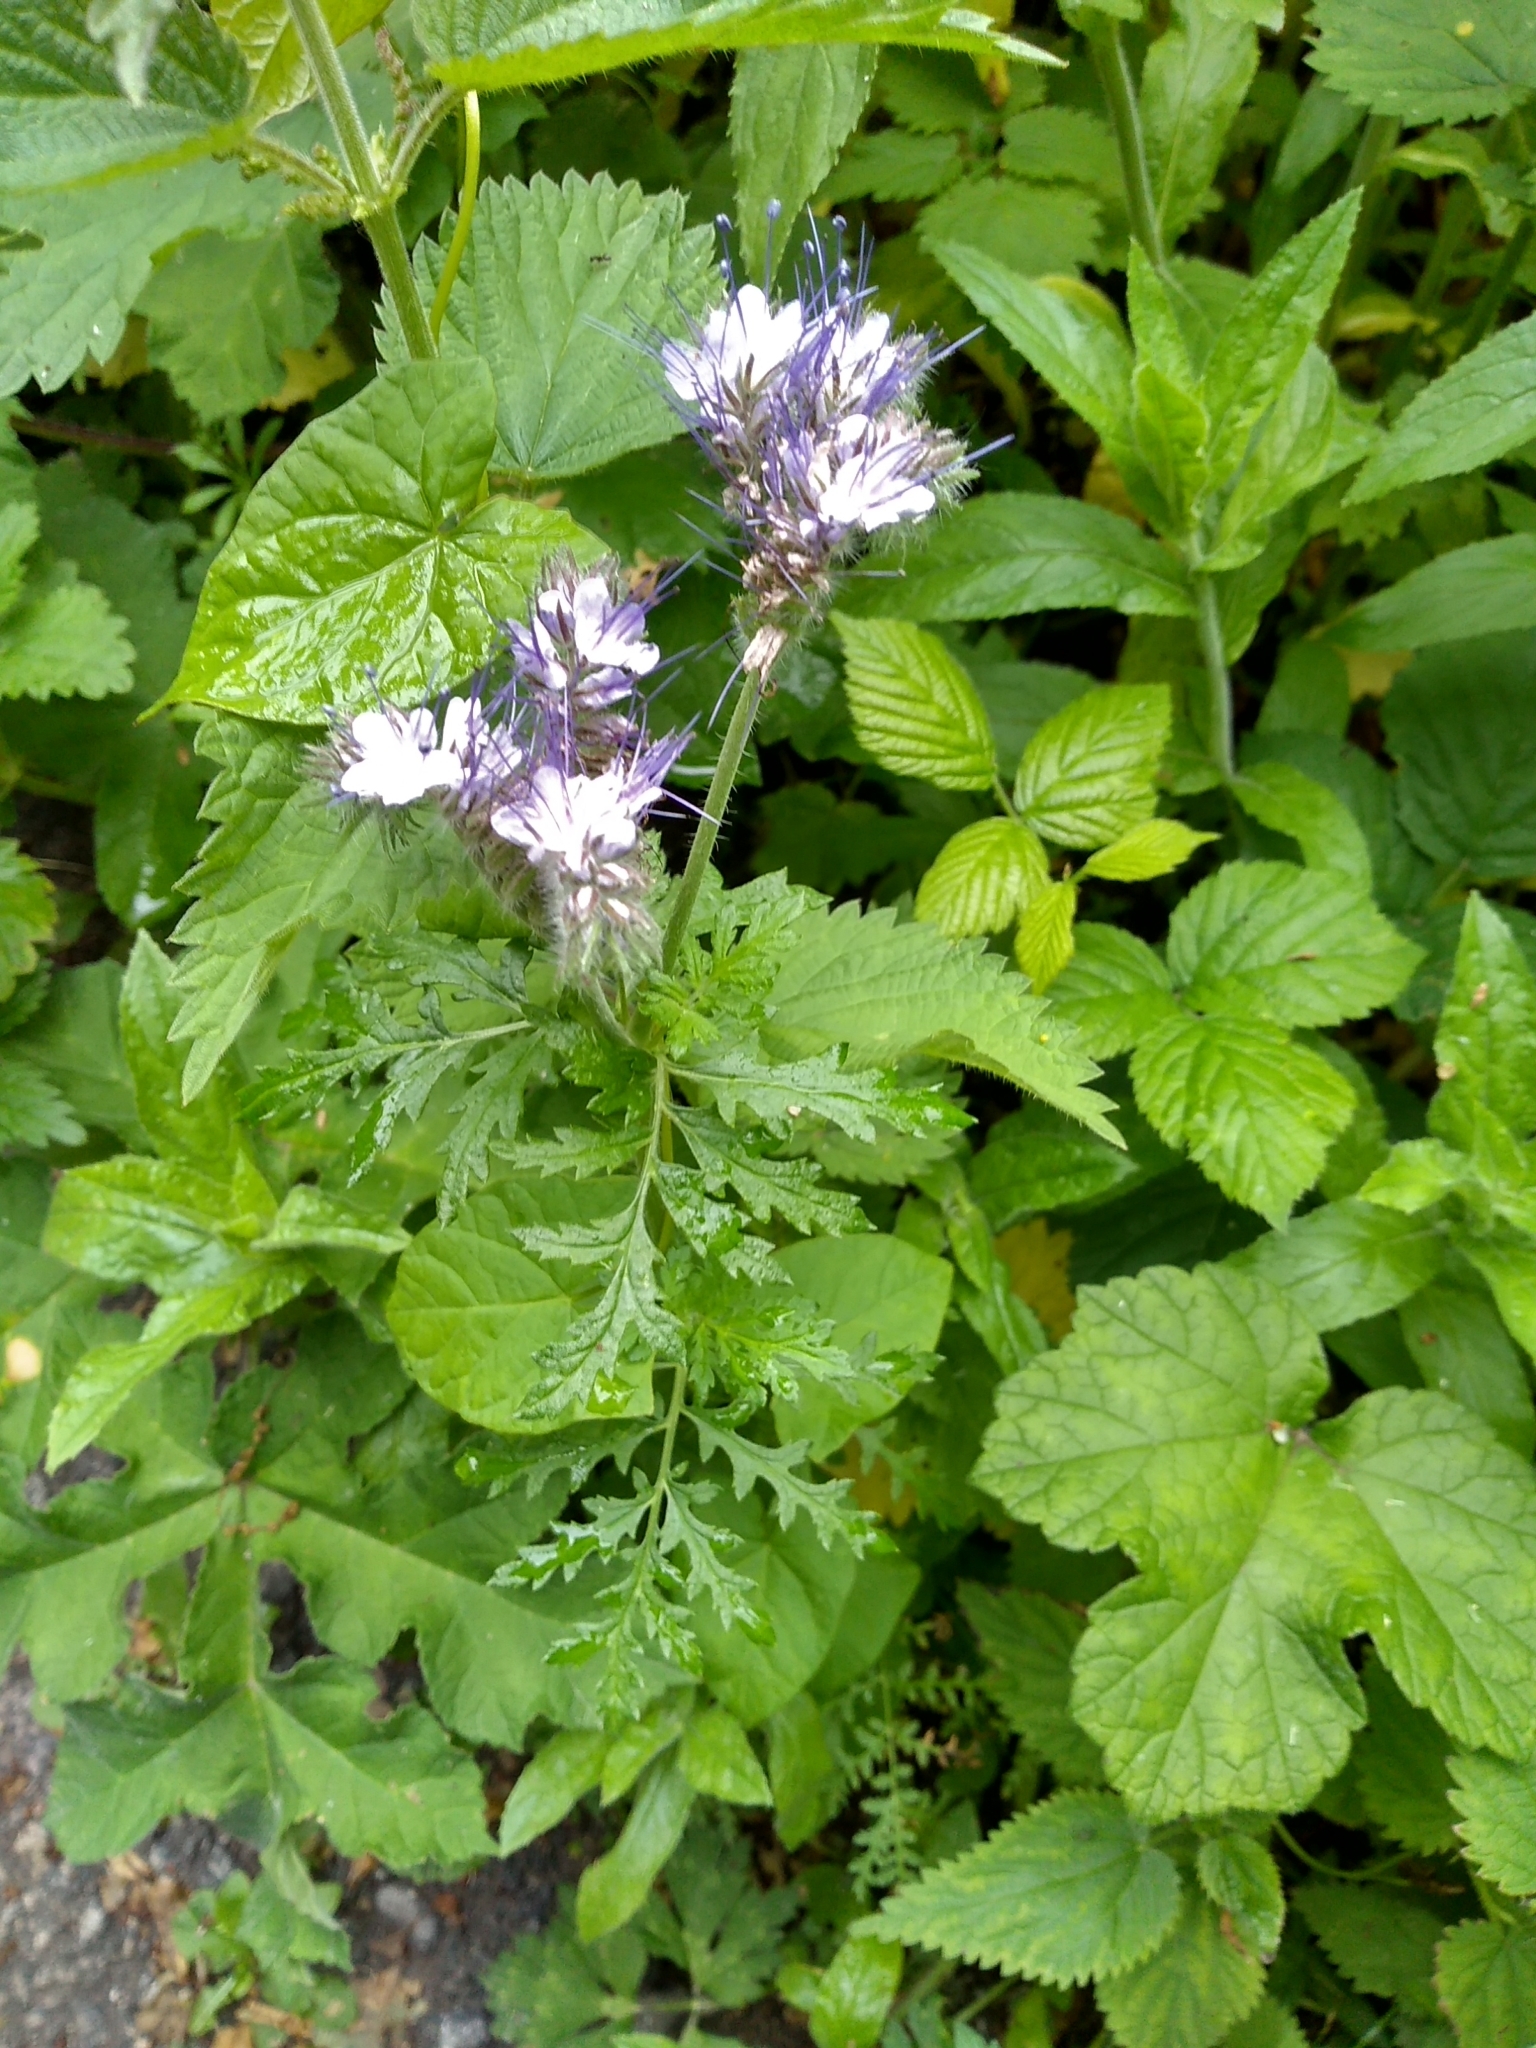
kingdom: Plantae
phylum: Tracheophyta
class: Magnoliopsida
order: Boraginales
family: Hydrophyllaceae
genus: Phacelia
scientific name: Phacelia tanacetifolia
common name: Phacelia
